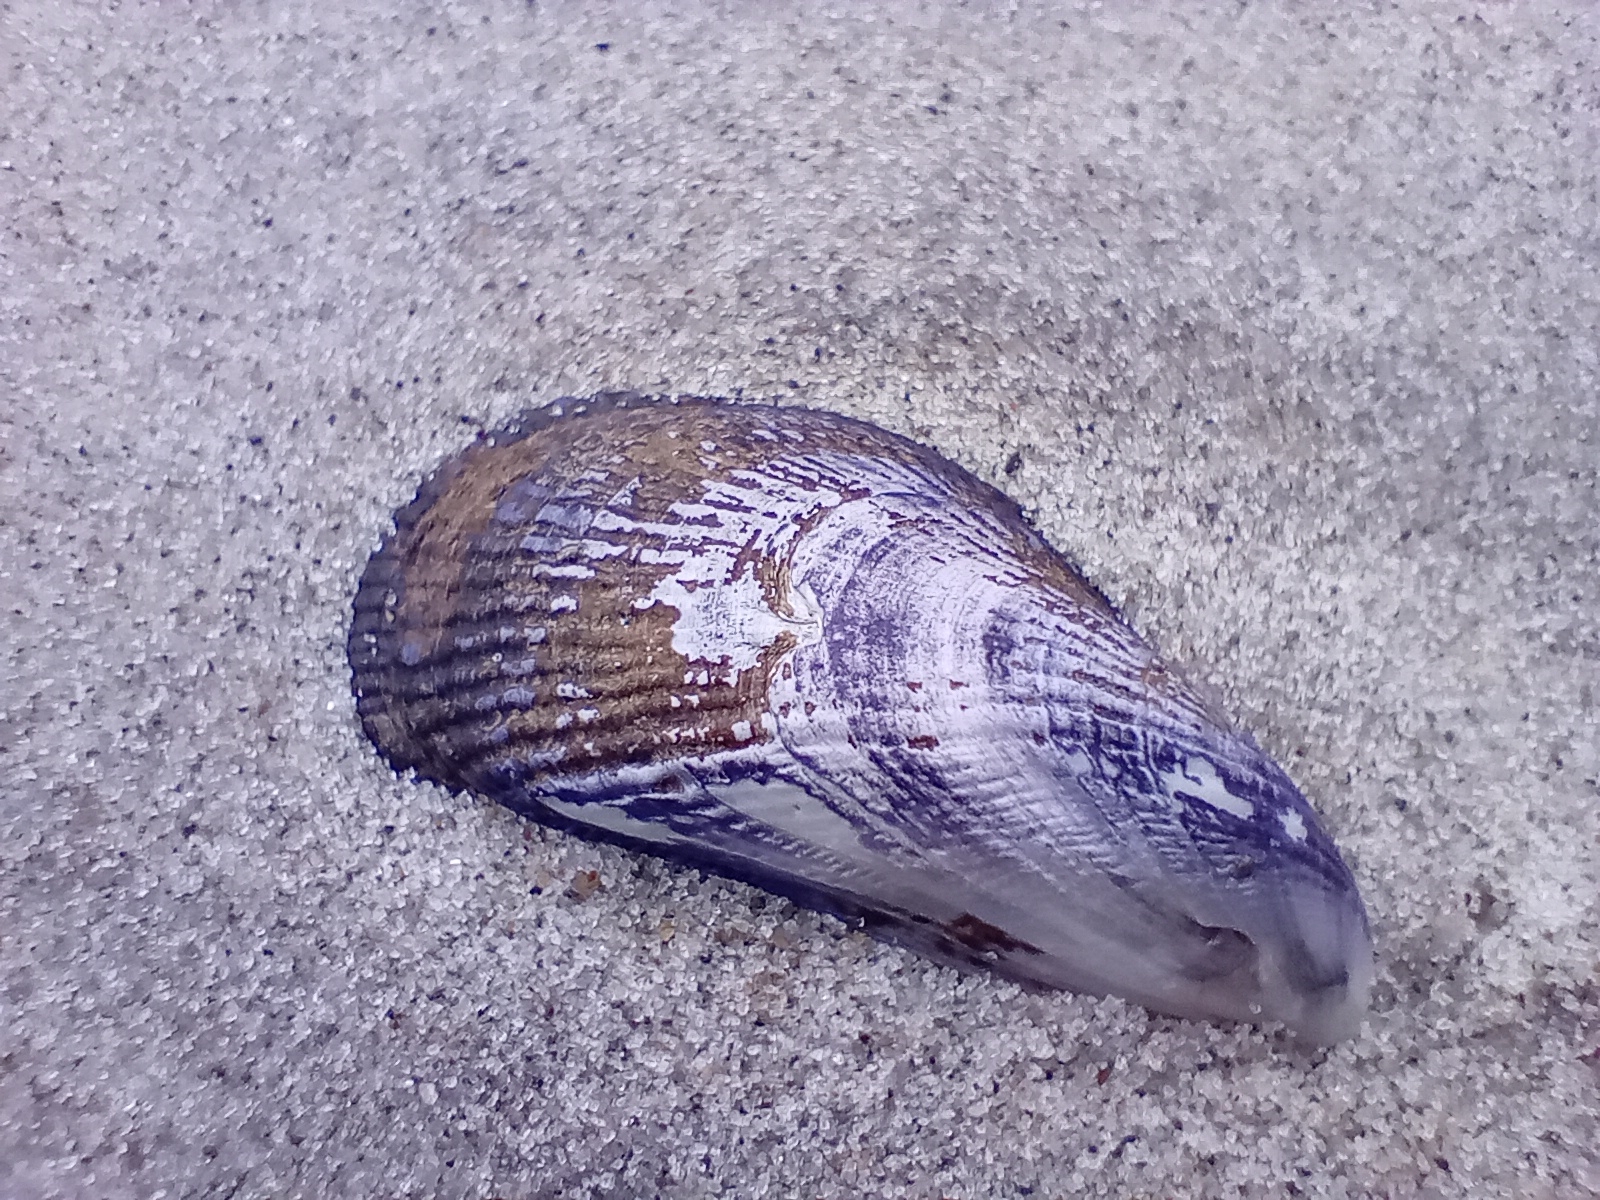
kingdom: Animalia
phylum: Mollusca
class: Bivalvia
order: Mytilida
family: Mytilidae
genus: Aulacomya
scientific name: Aulacomya maoriana
